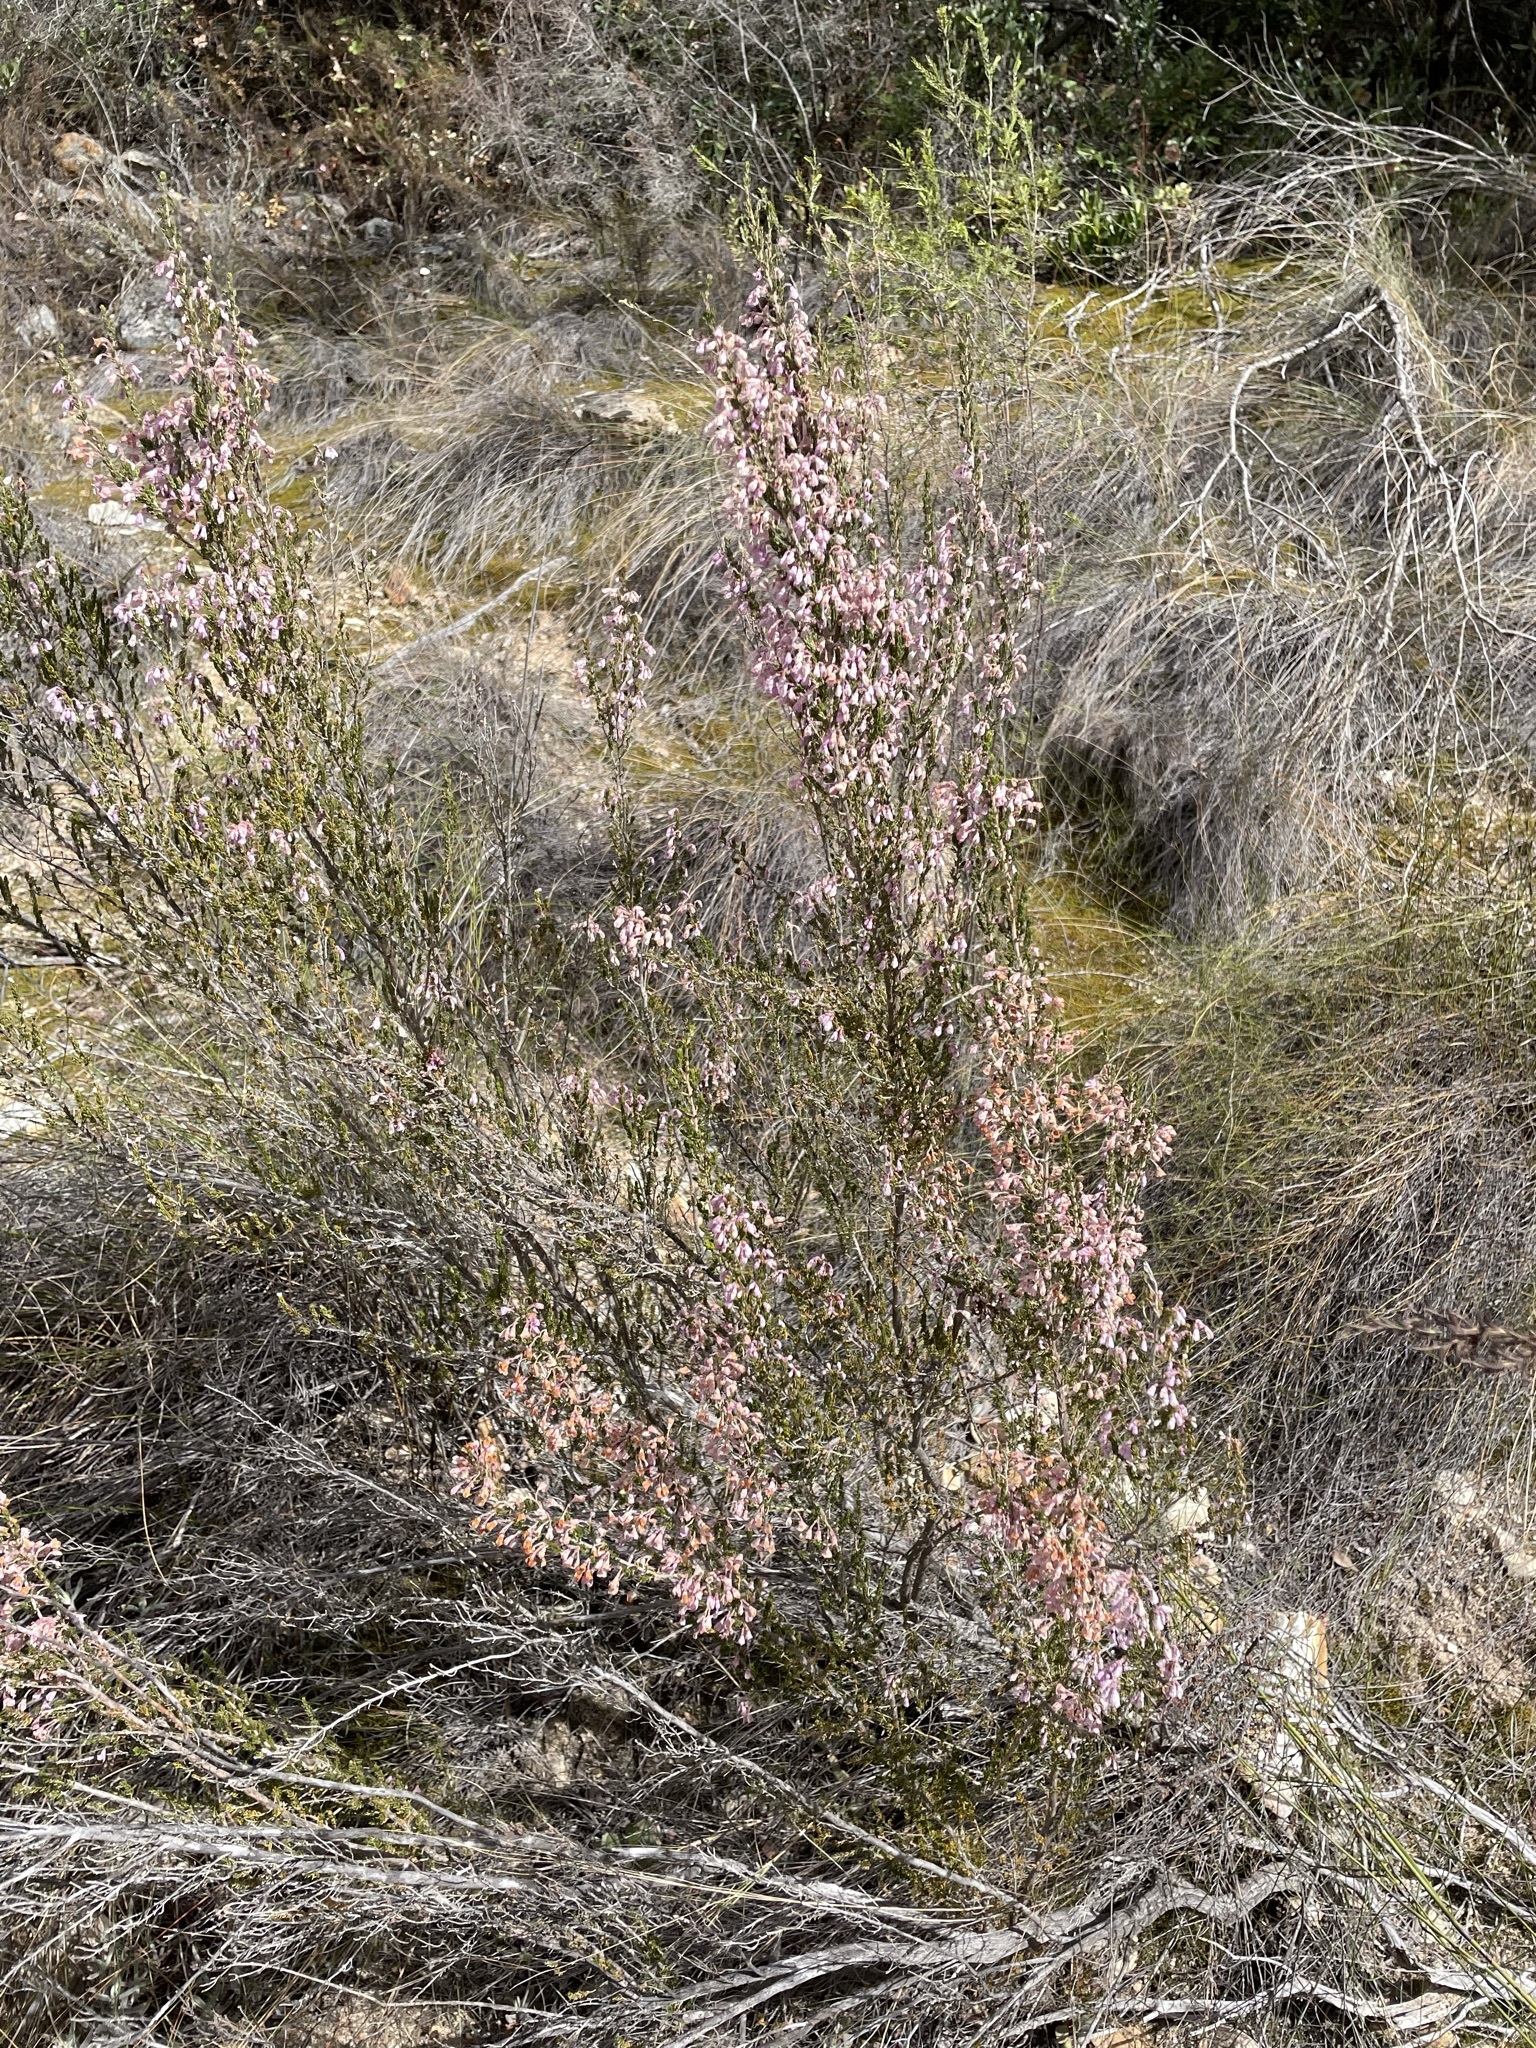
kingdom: Plantae
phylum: Tracheophyta
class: Magnoliopsida
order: Ericales
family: Ericaceae
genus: Erica
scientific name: Erica newdigatei
